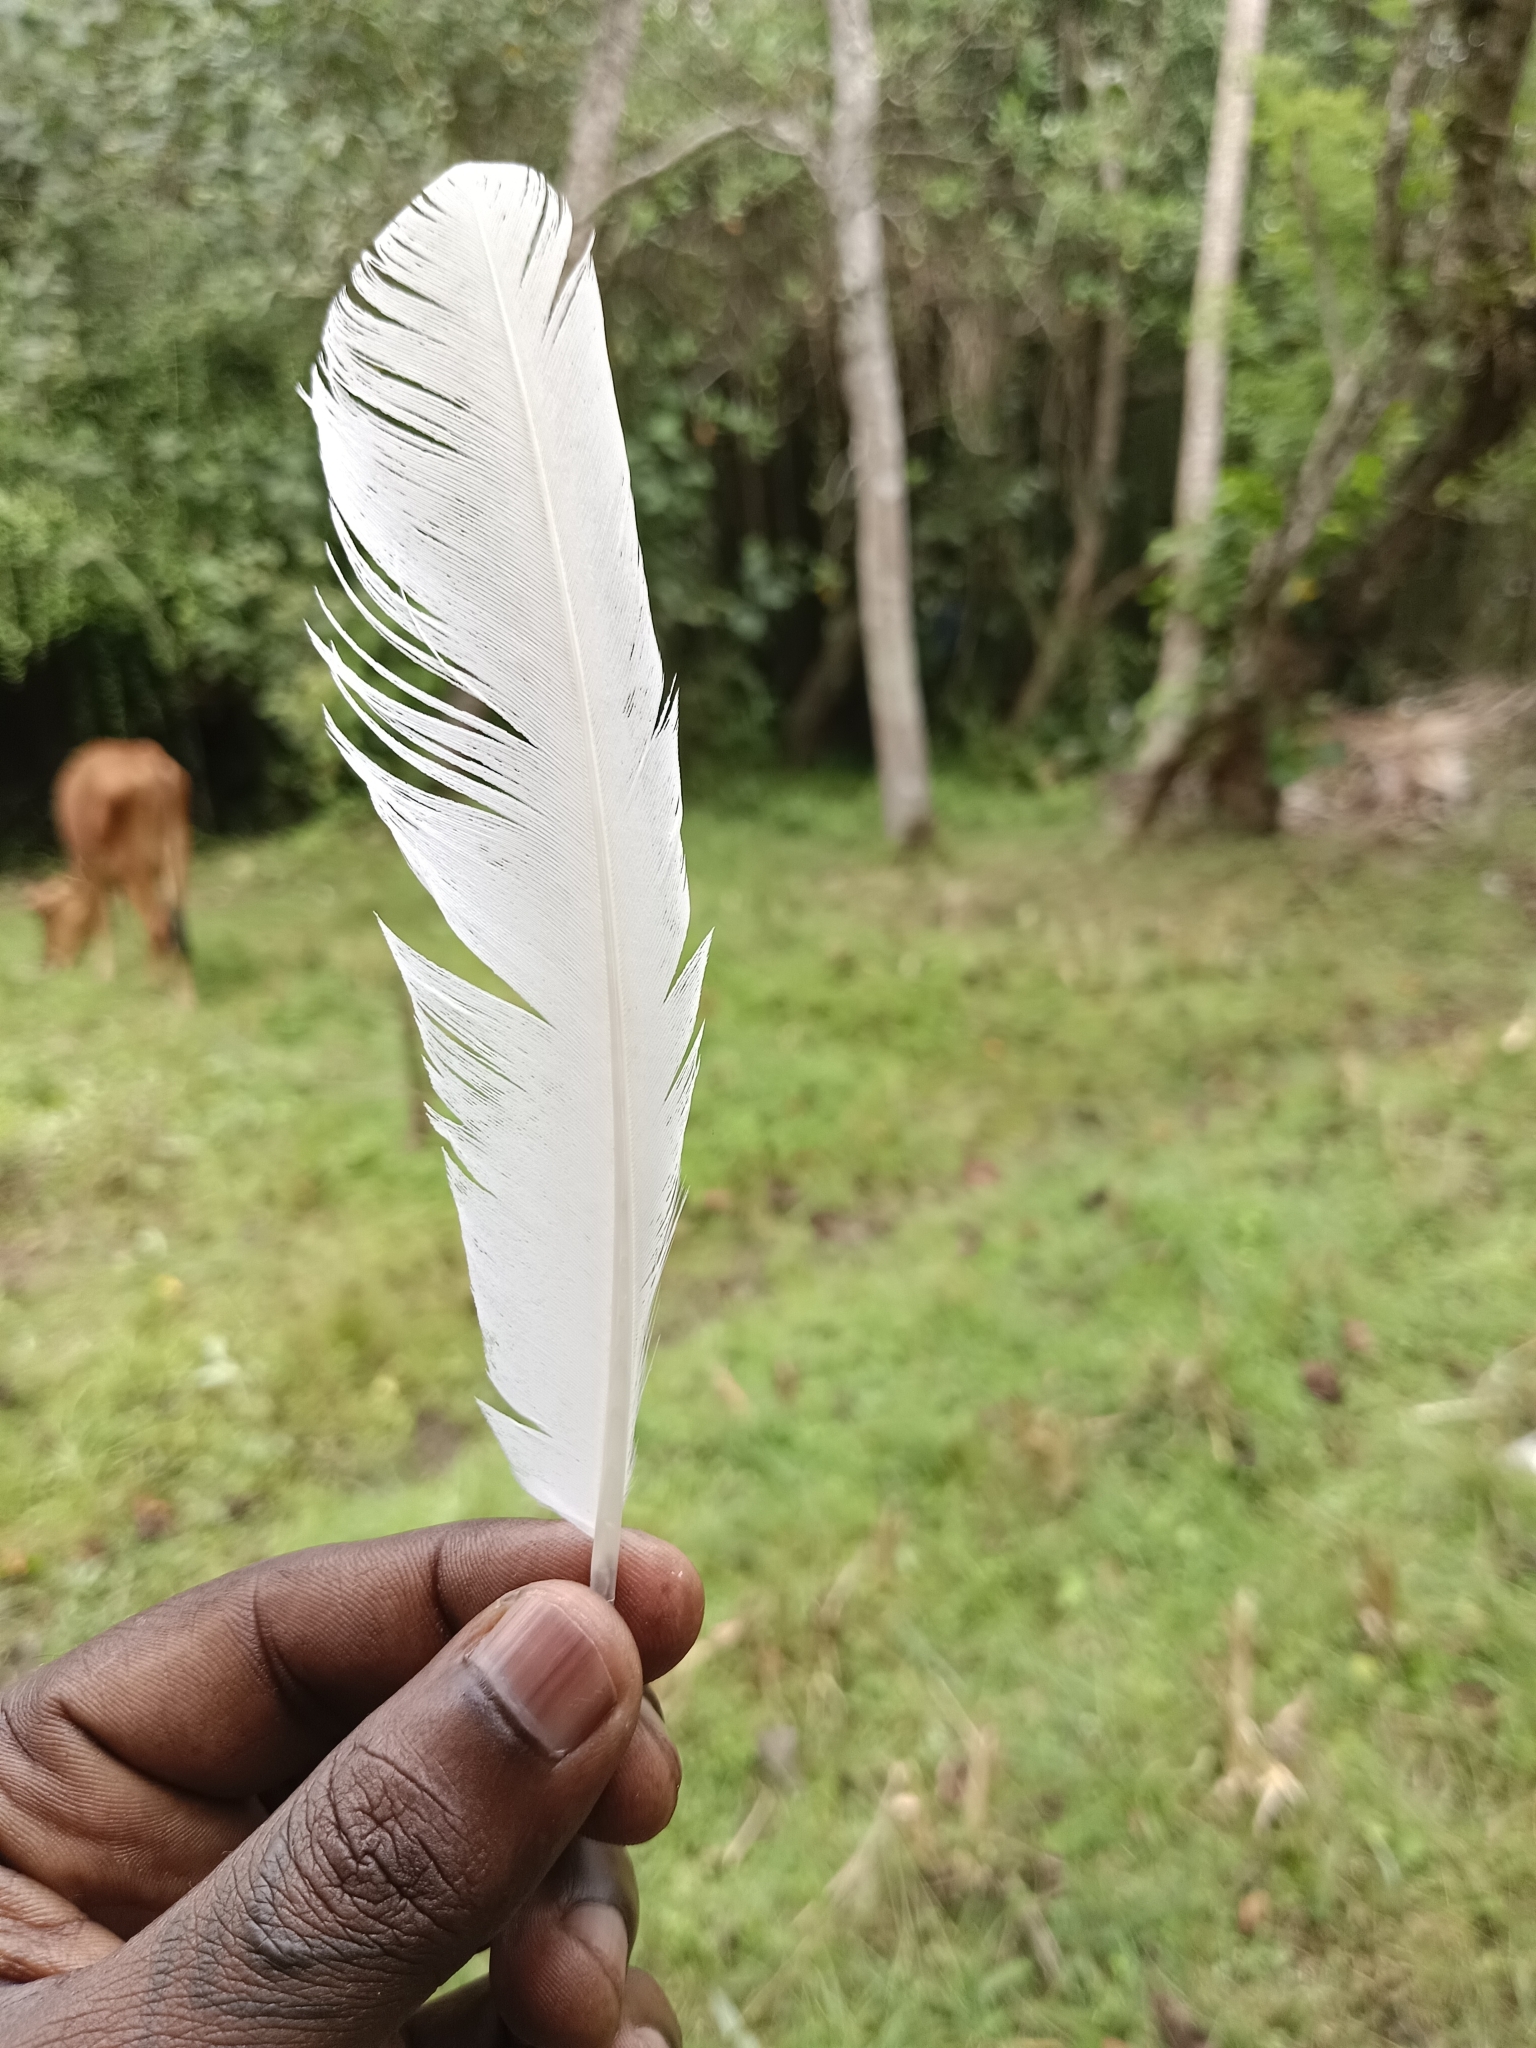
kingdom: Animalia
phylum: Chordata
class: Aves
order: Pelecaniformes
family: Ardeidae
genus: Bubulcus
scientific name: Bubulcus coromandus
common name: Eastern cattle egret
